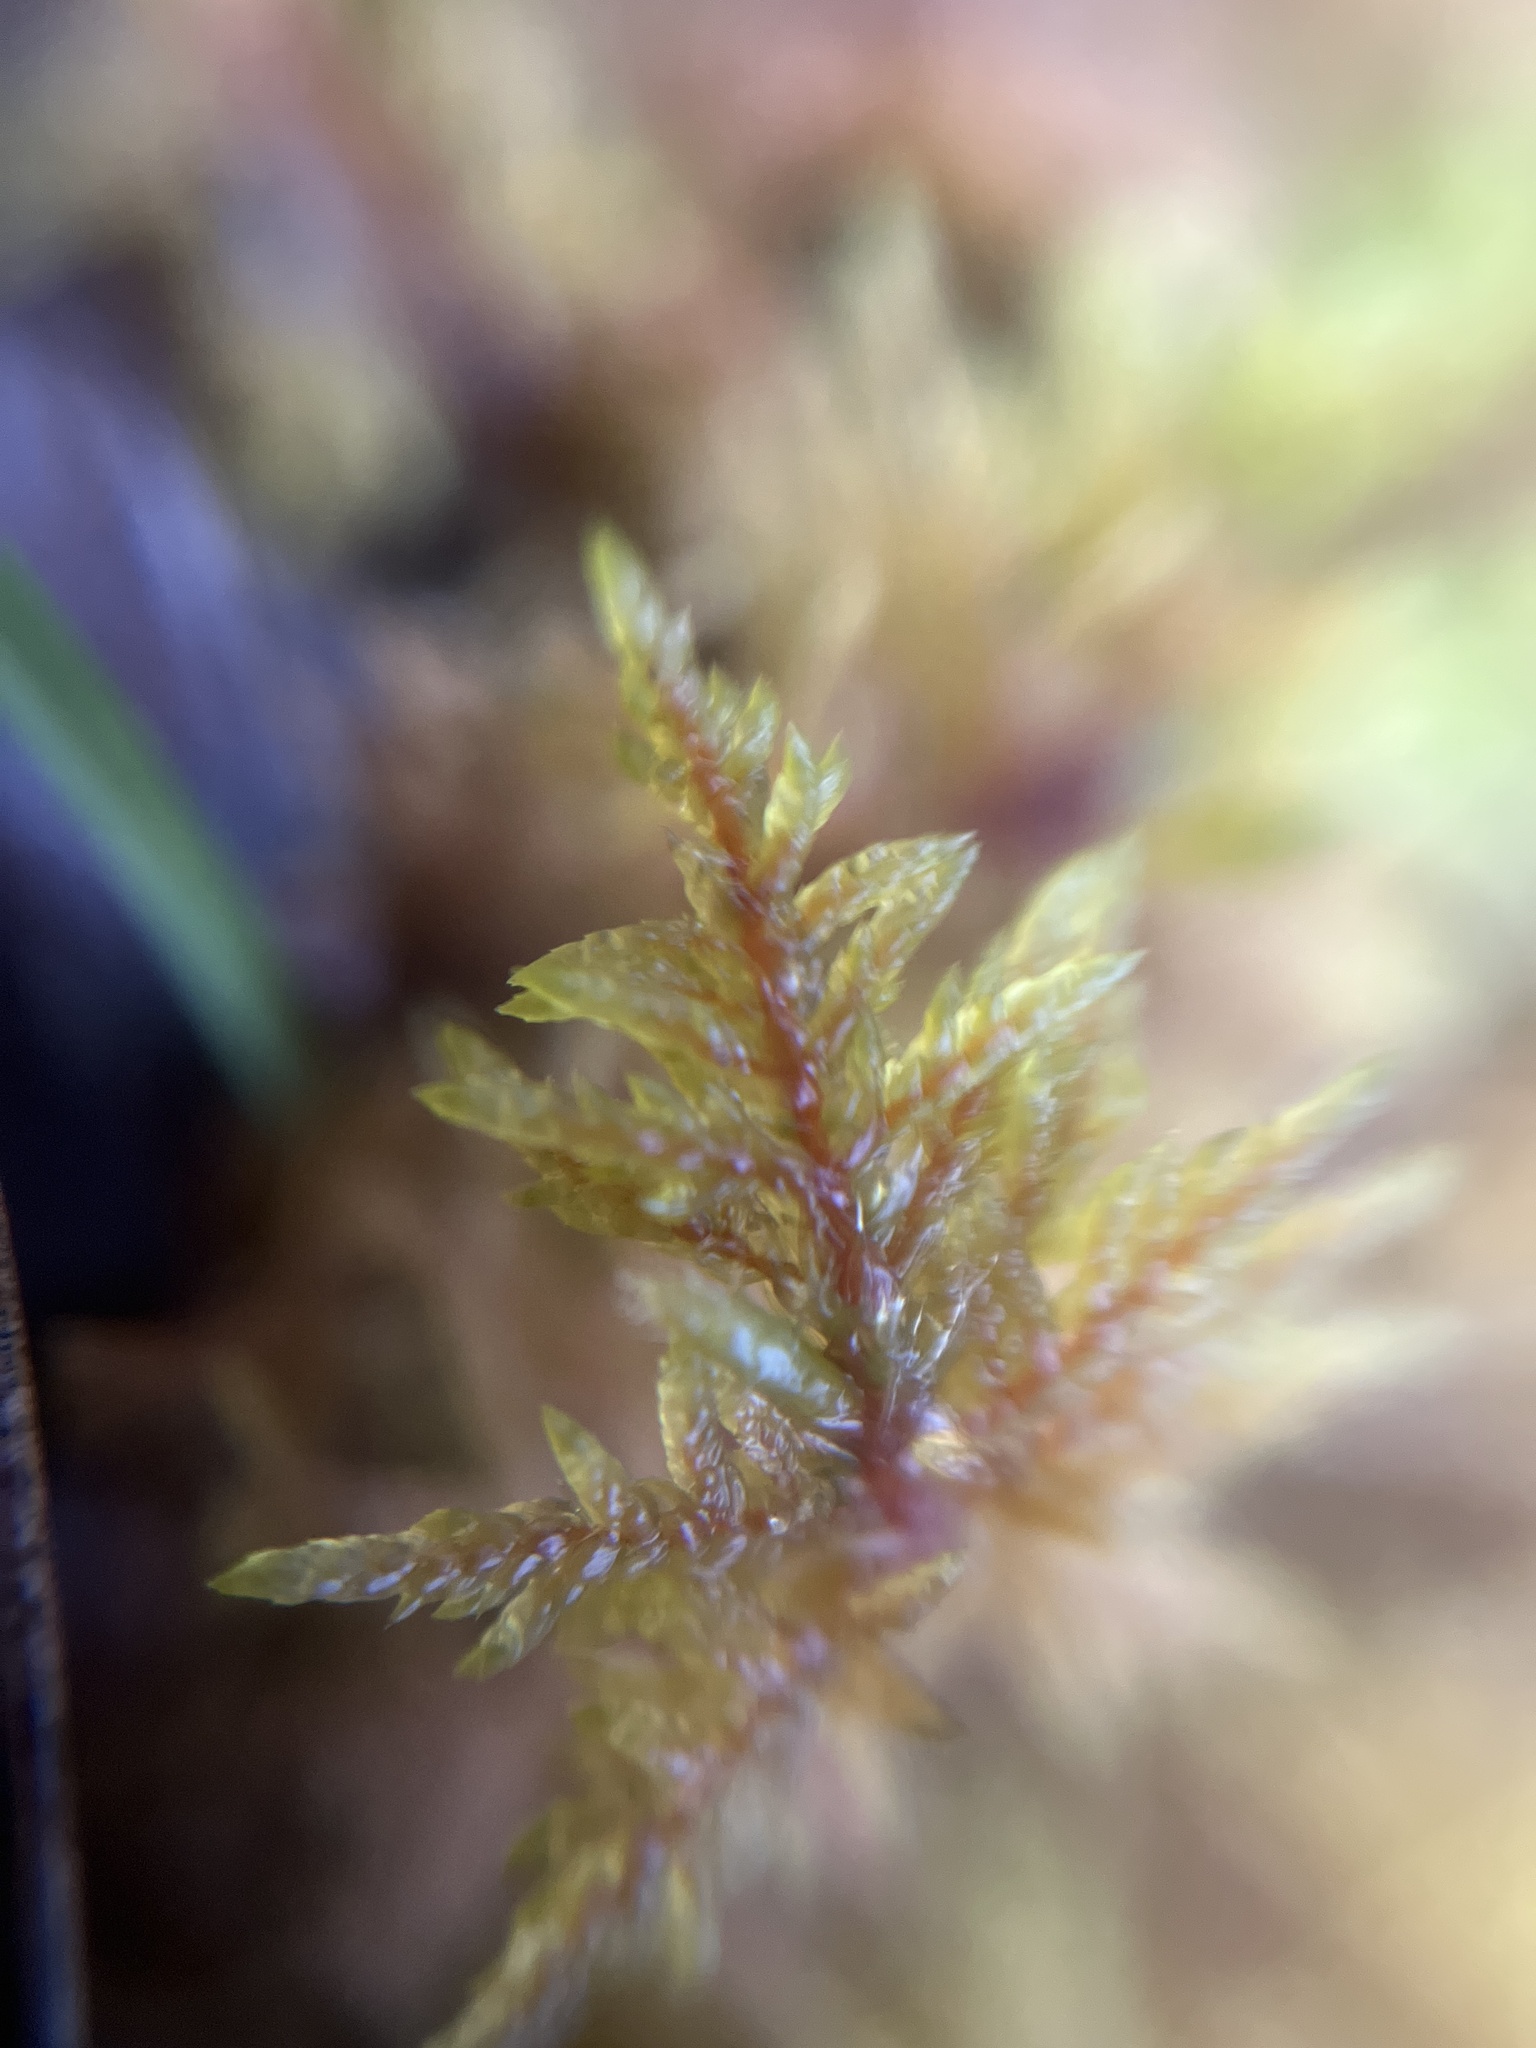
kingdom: Plantae
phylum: Bryophyta
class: Bryopsida
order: Hypnales
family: Hylocomiaceae
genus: Hylocomium
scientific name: Hylocomium splendens
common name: Stairstep moss
